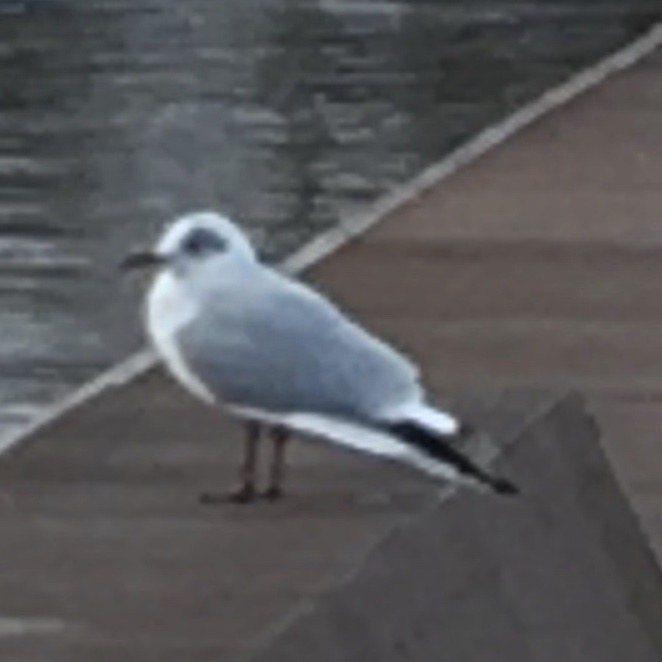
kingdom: Animalia
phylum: Chordata
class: Aves
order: Charadriiformes
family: Laridae
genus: Chroicocephalus
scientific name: Chroicocephalus ridibundus
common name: Black-headed gull
